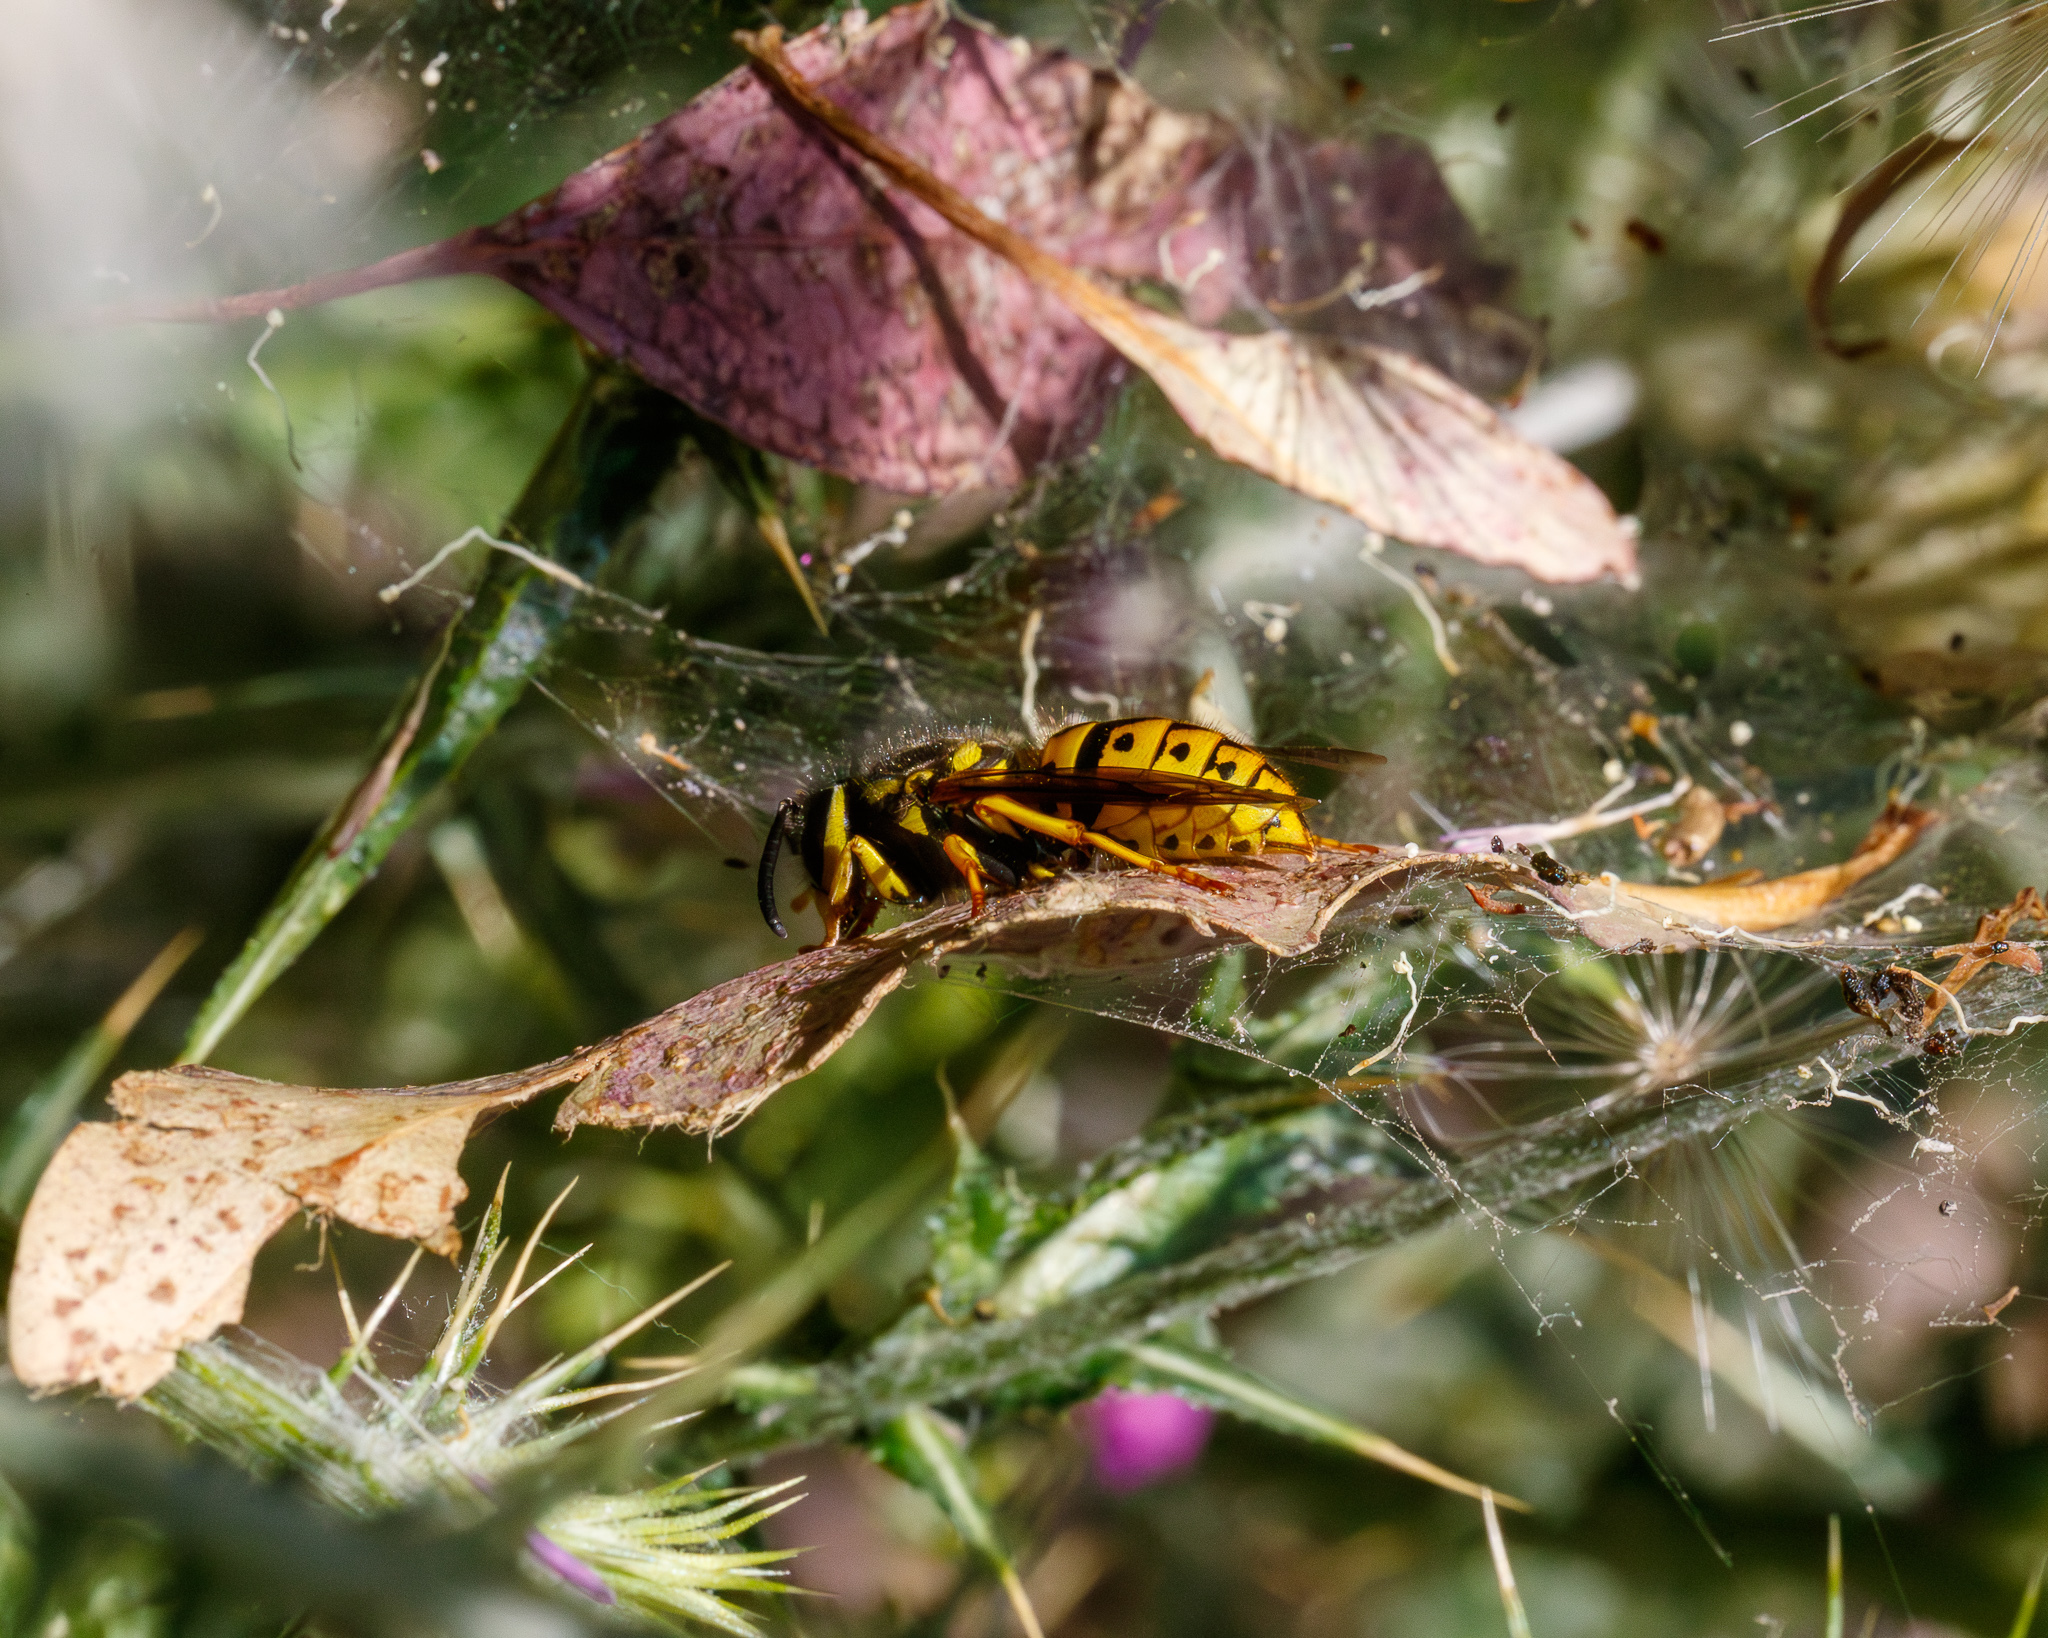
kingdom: Animalia
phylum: Arthropoda
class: Insecta
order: Hymenoptera
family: Vespidae
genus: Vespula
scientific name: Vespula pensylvanica
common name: Western yellowjacket
